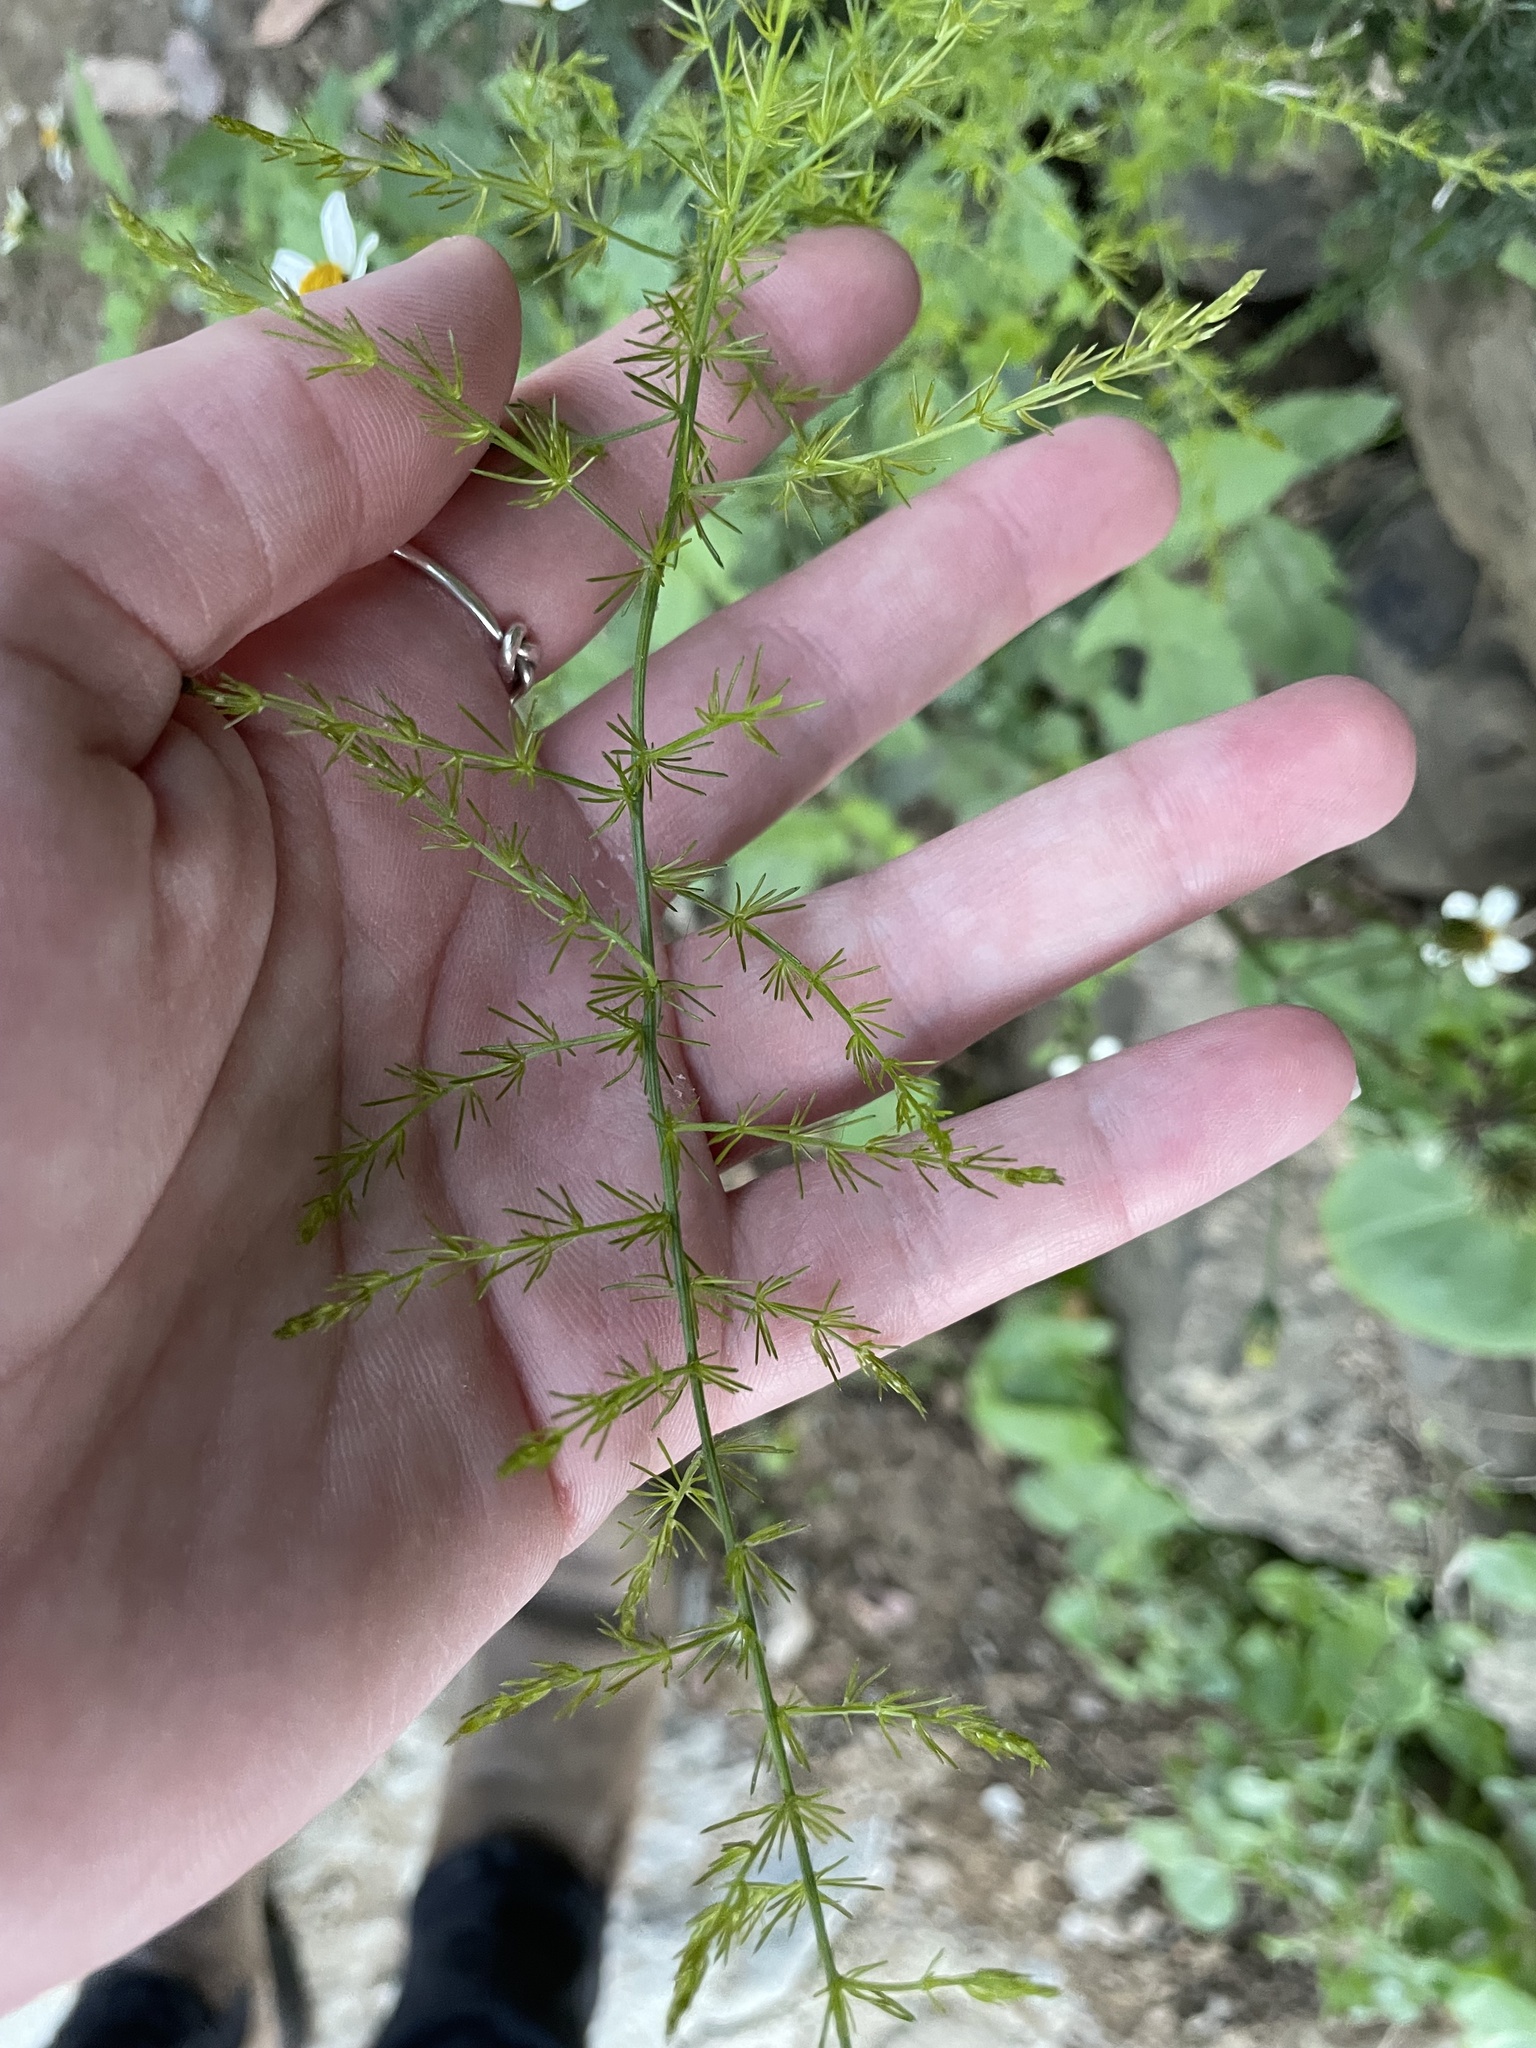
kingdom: Plantae
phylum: Tracheophyta
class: Magnoliopsida
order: Asterales
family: Asteraceae
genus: Bidens
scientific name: Bidens pilosa
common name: Black-jack
